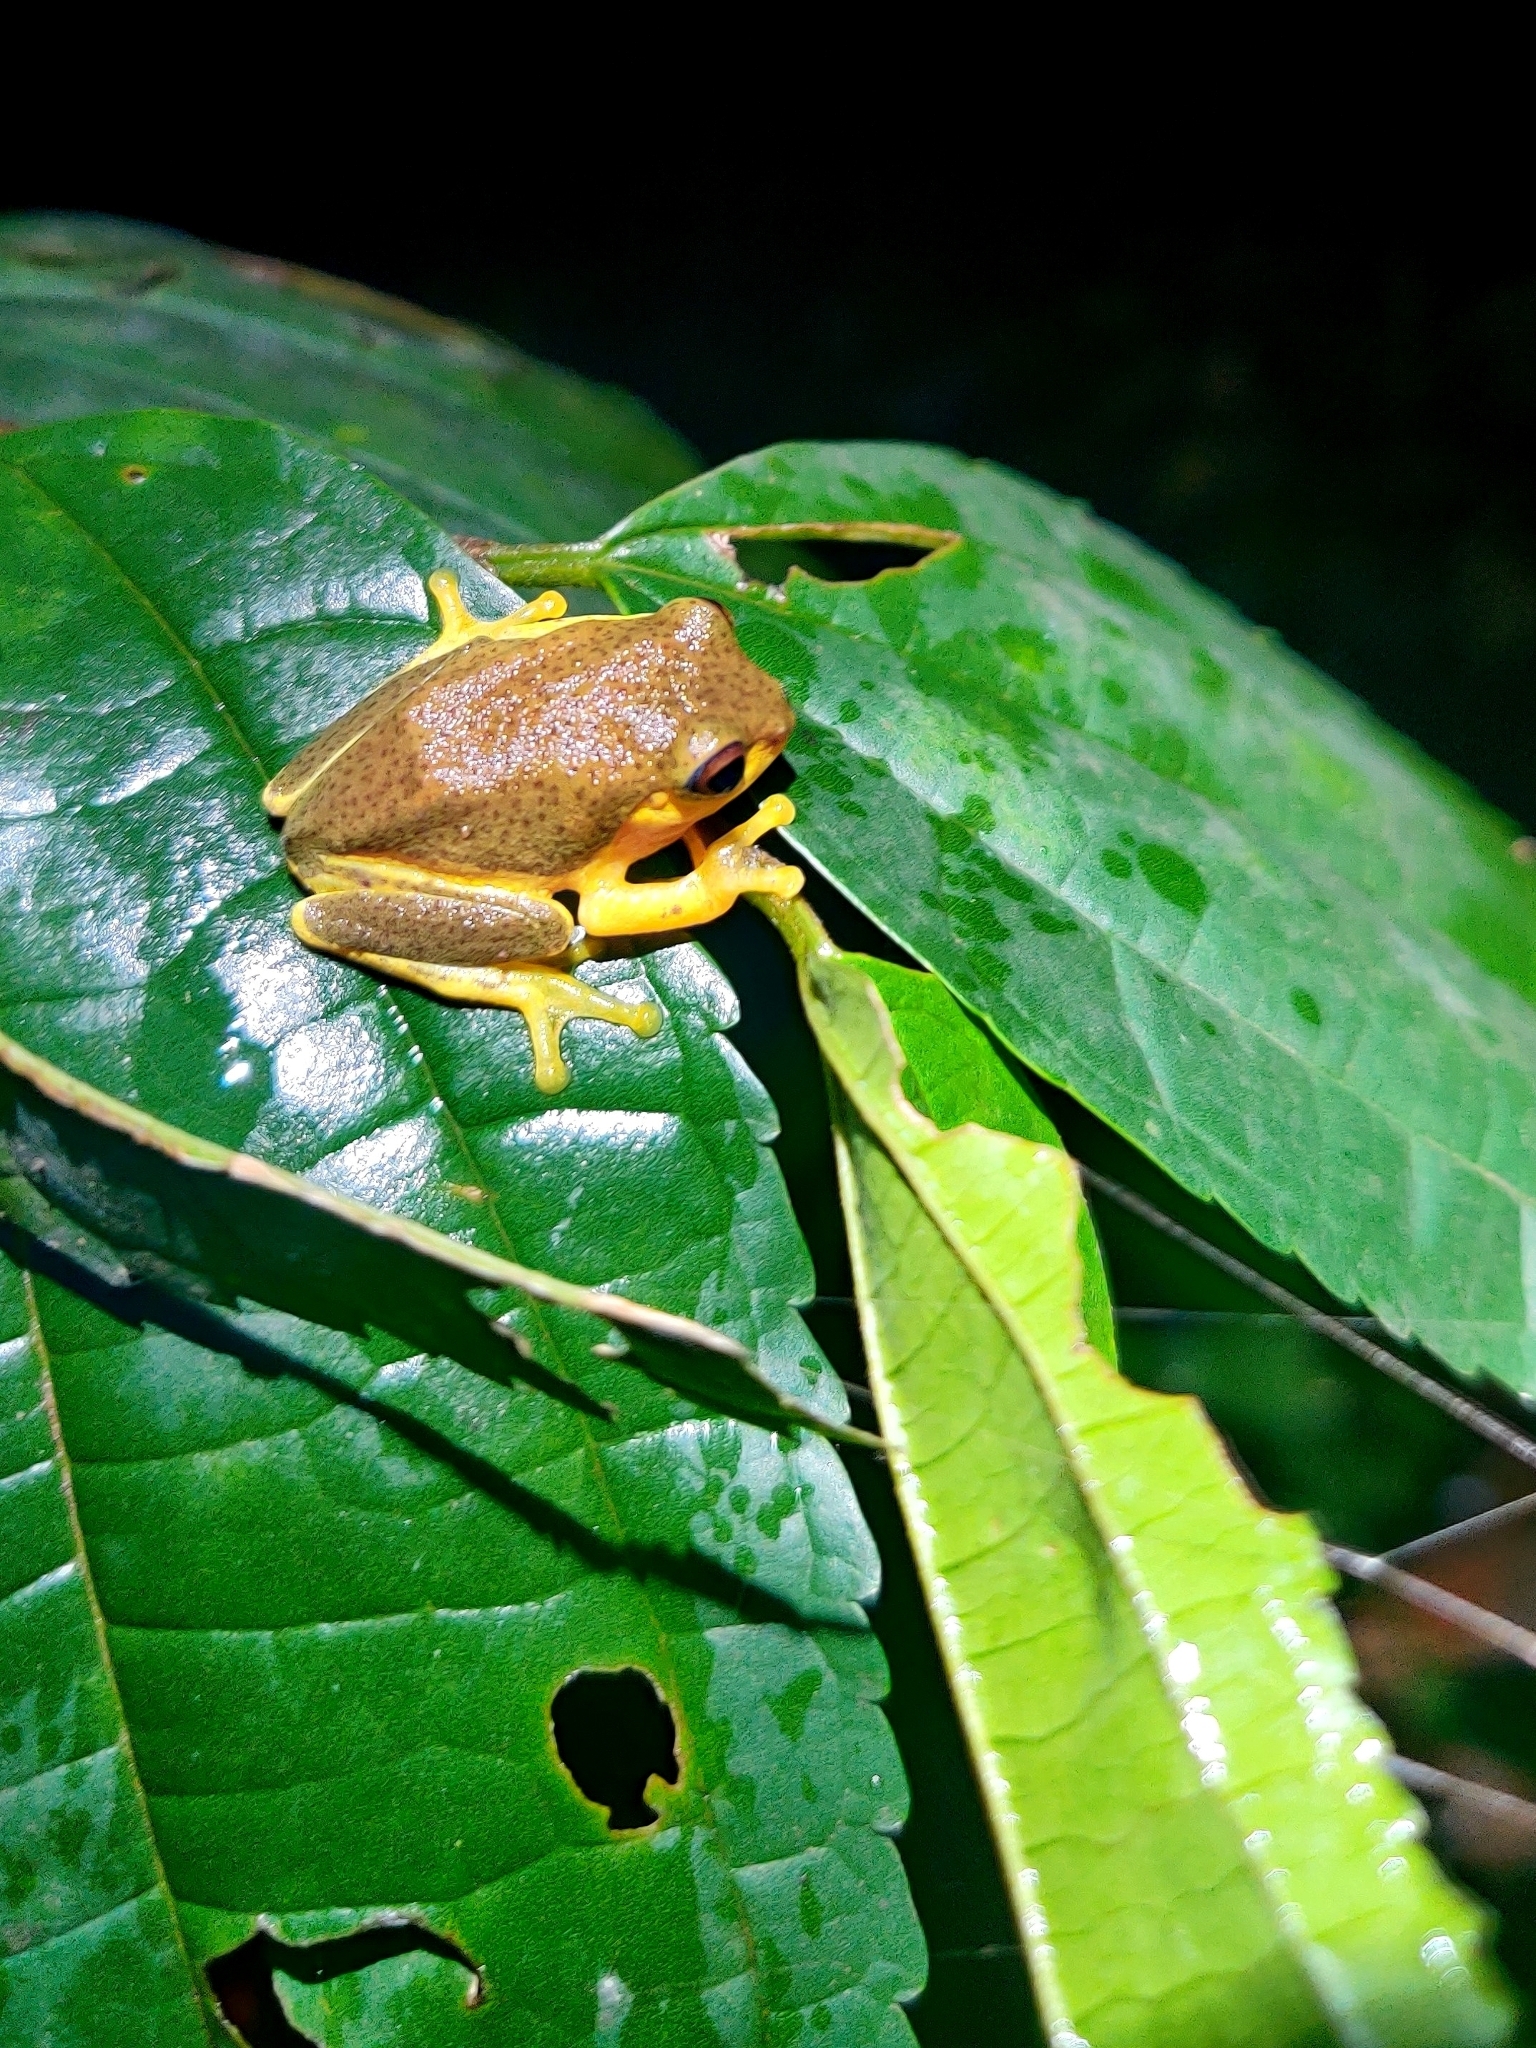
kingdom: Animalia
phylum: Chordata
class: Amphibia
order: Anura
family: Rhacophoridae
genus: Raorchestes
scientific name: Raorchestes glandulosus
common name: Beautiful bush frog
